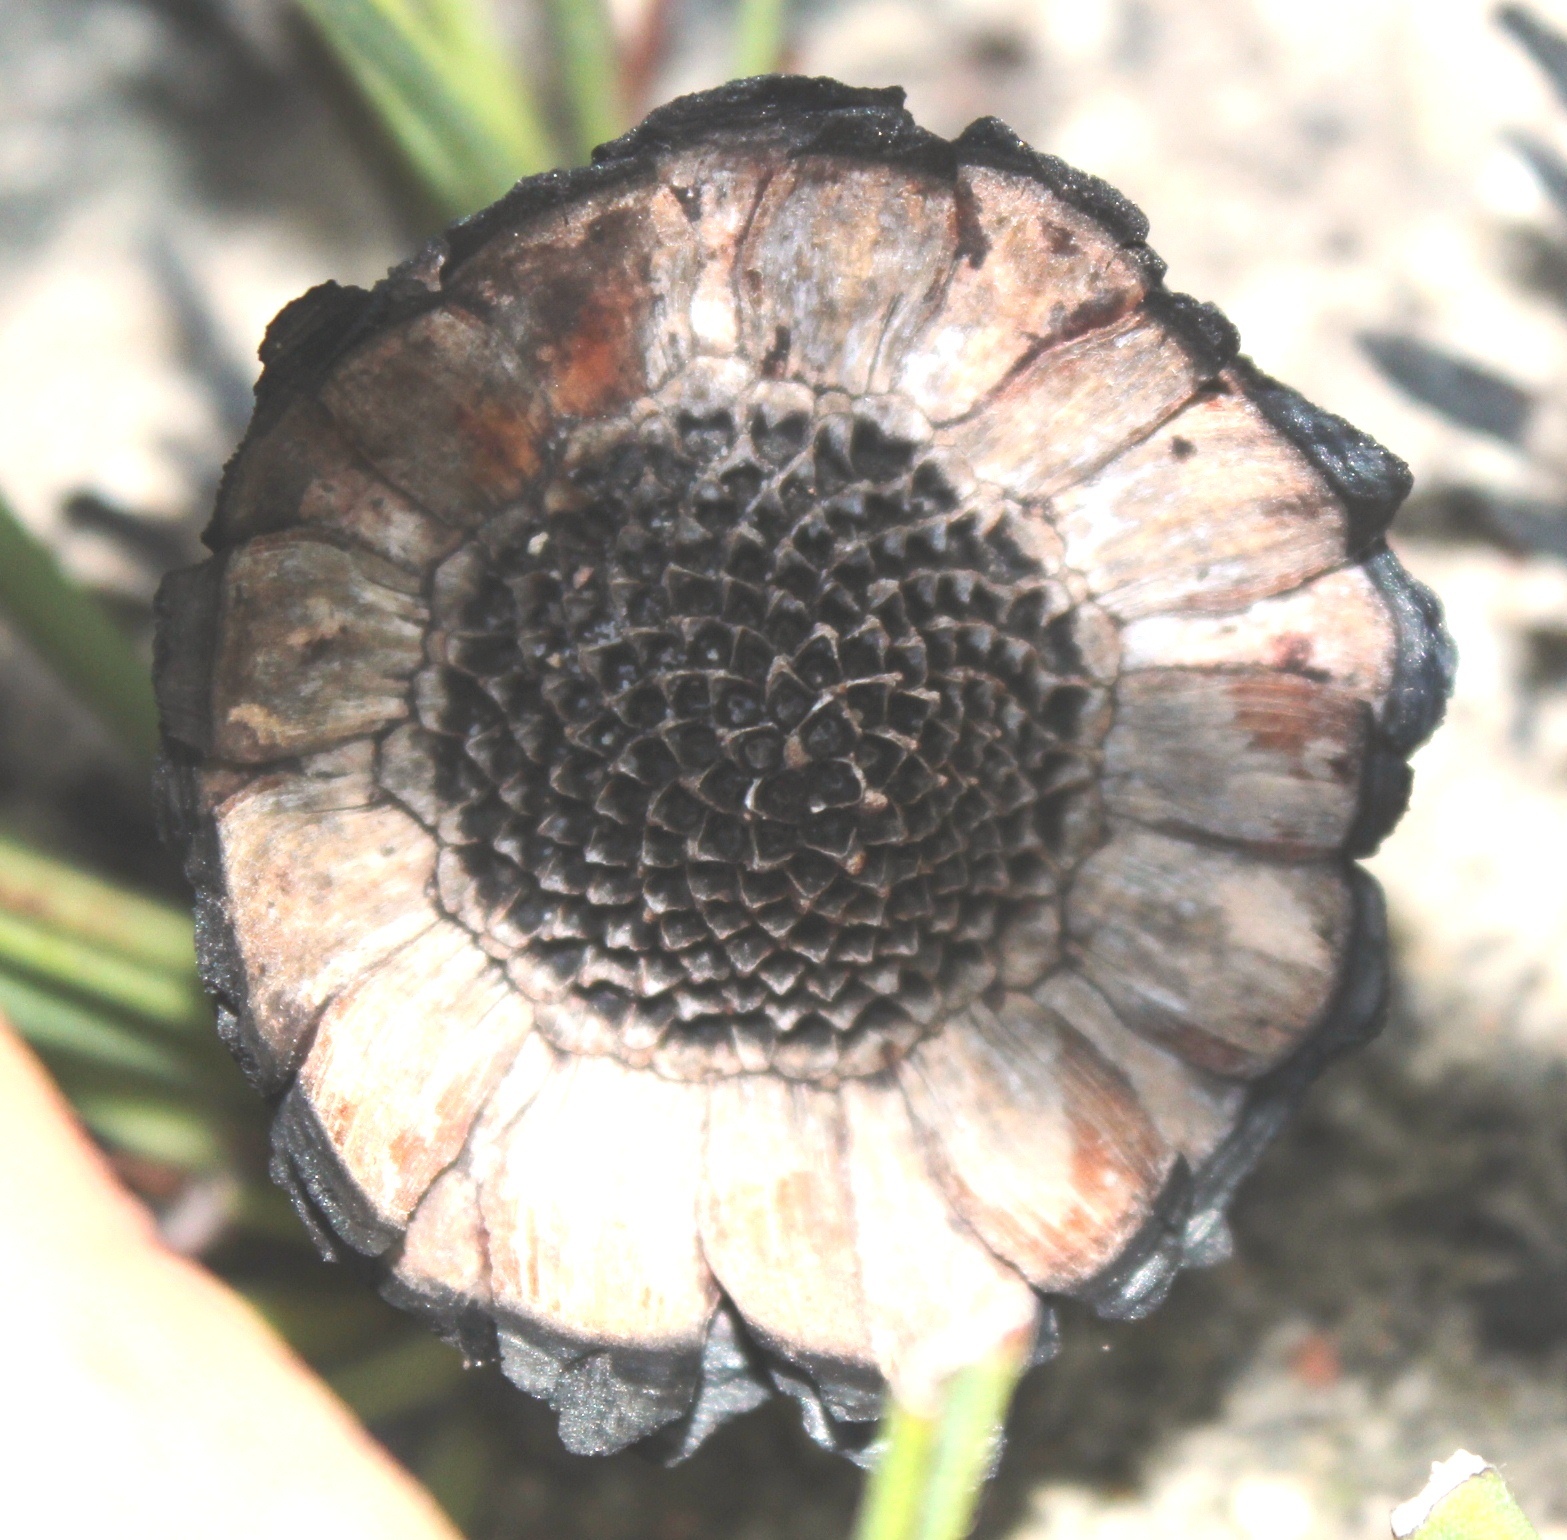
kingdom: Plantae
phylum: Tracheophyta
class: Magnoliopsida
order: Proteales
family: Proteaceae
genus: Protea
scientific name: Protea scabra
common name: Sandpaper-leaf sugarbush
